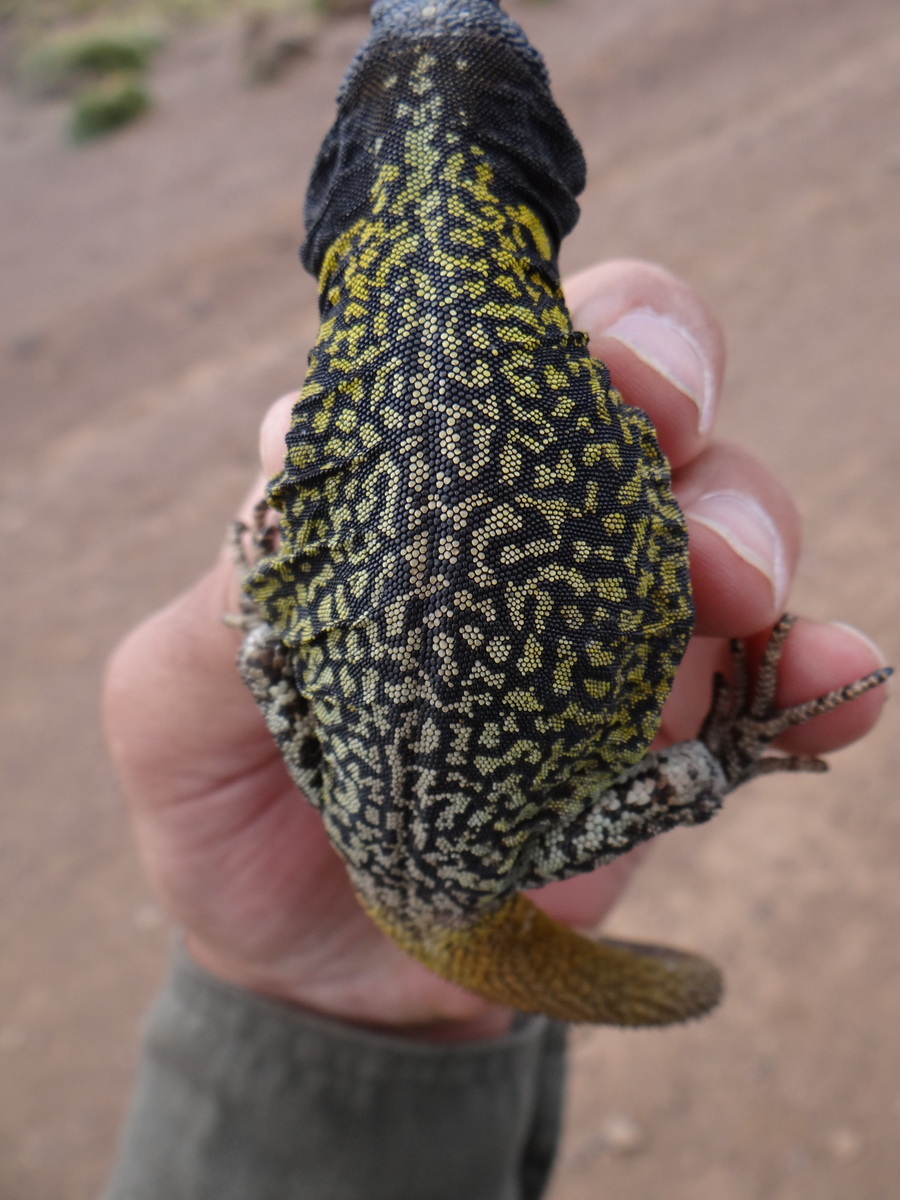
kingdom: Animalia
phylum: Chordata
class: Squamata
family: Liolaemidae
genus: Phymaturus
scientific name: Phymaturus verdugo
